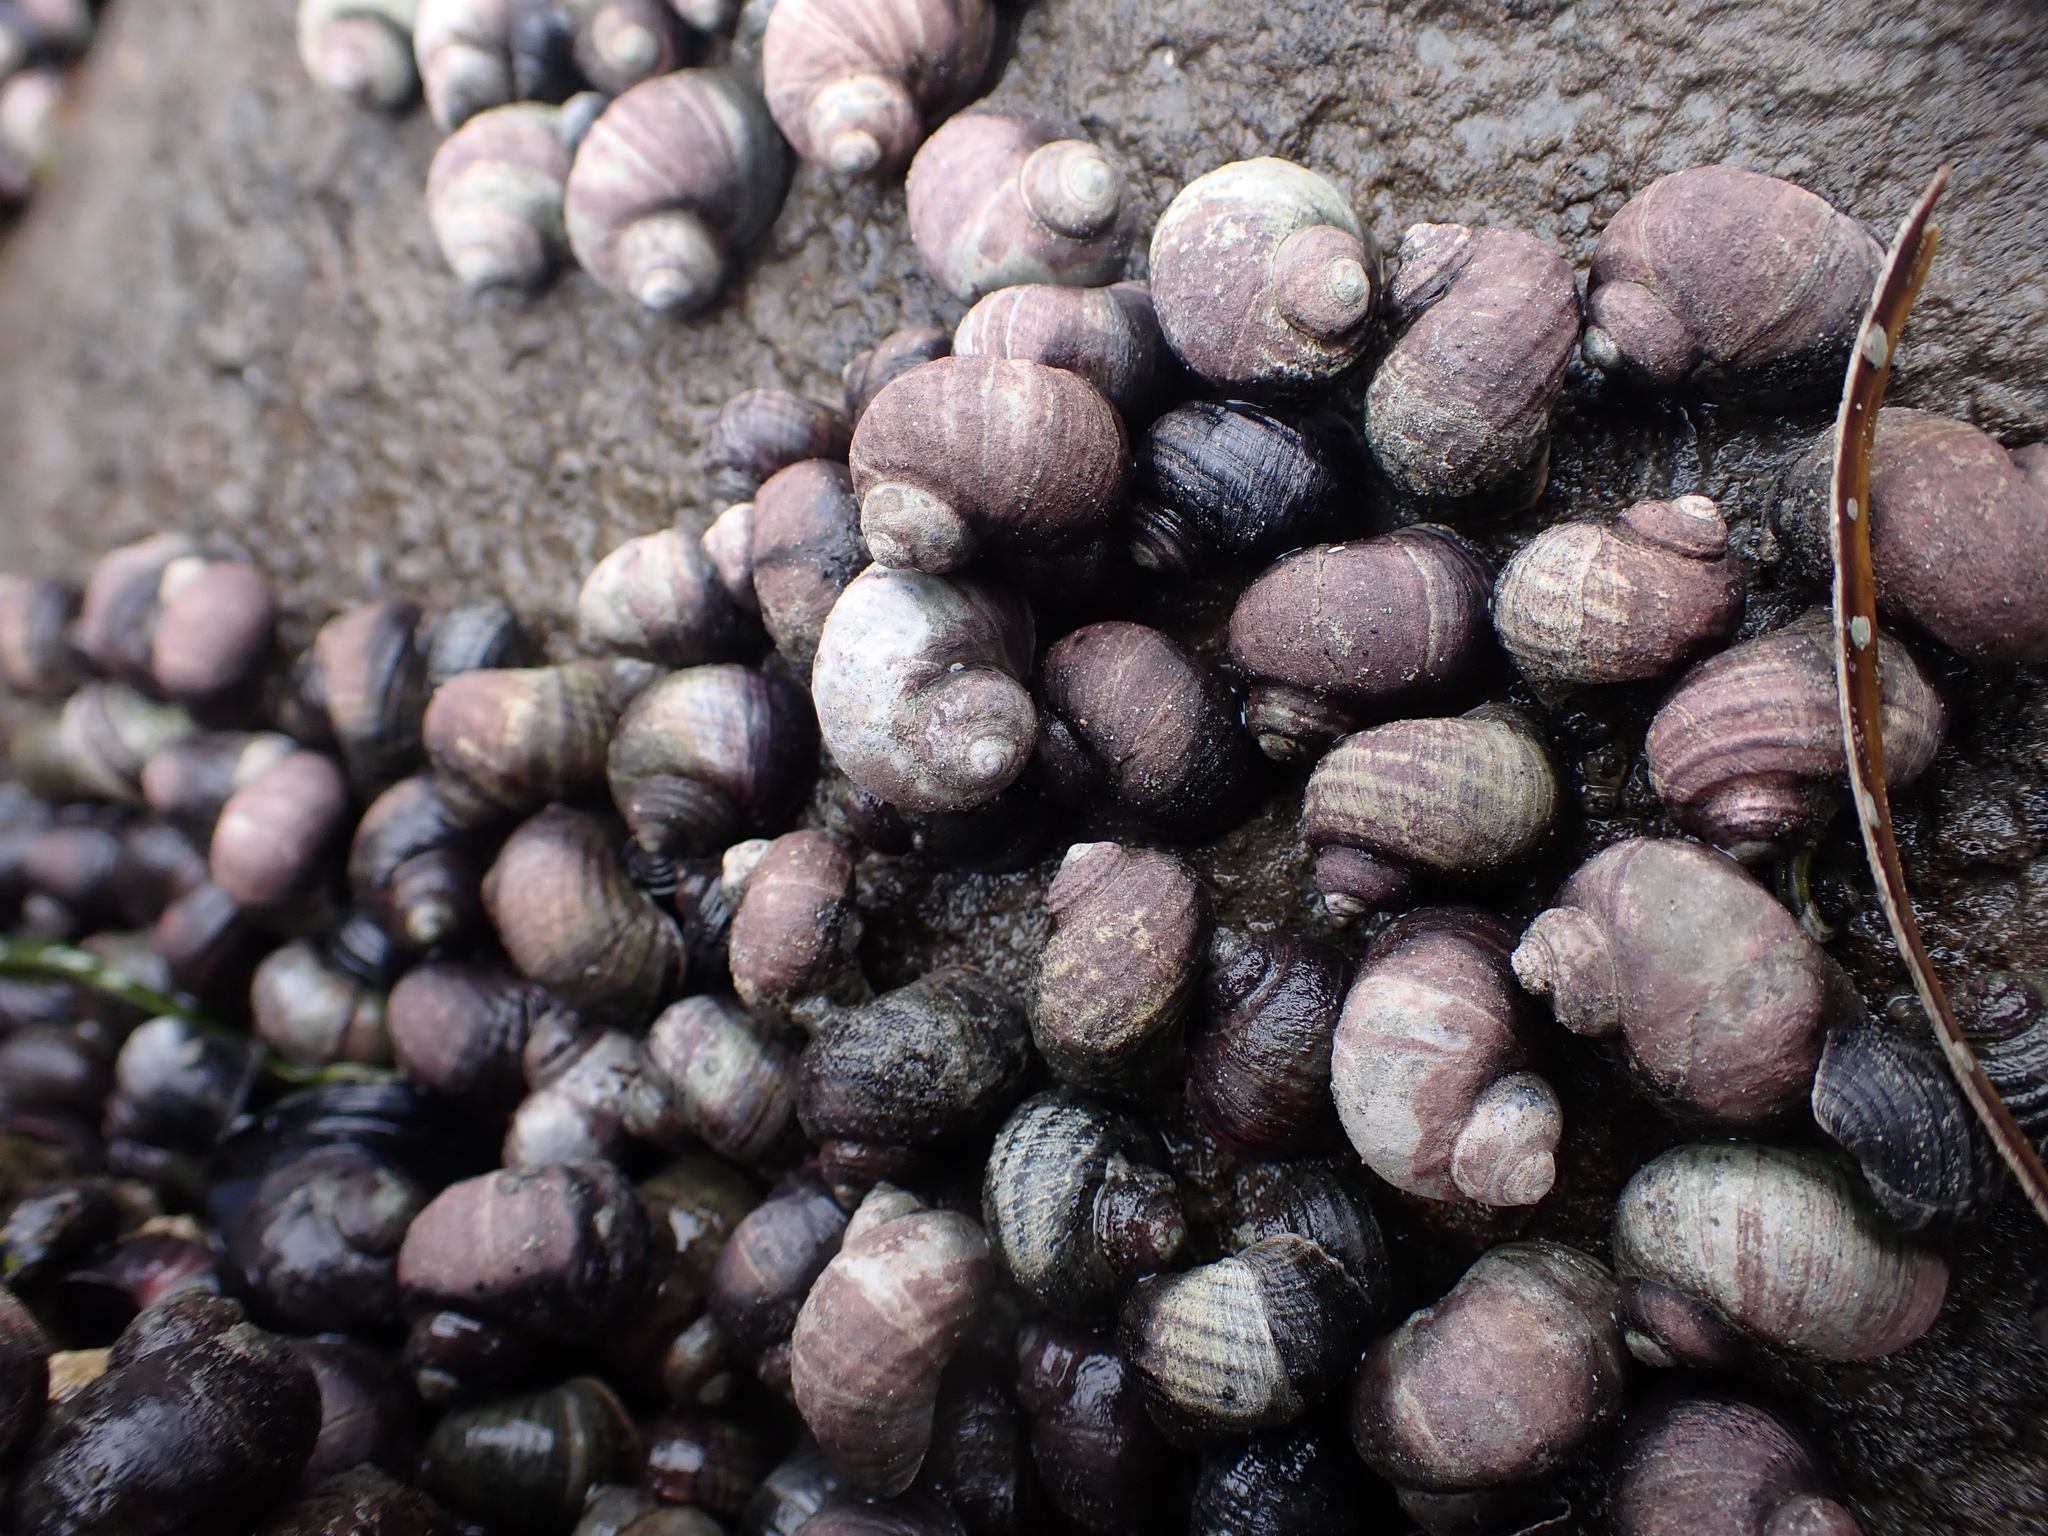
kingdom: Animalia
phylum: Mollusca
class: Gastropoda
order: Littorinimorpha
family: Littorinidae
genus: Littorina
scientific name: Littorina sitkana
